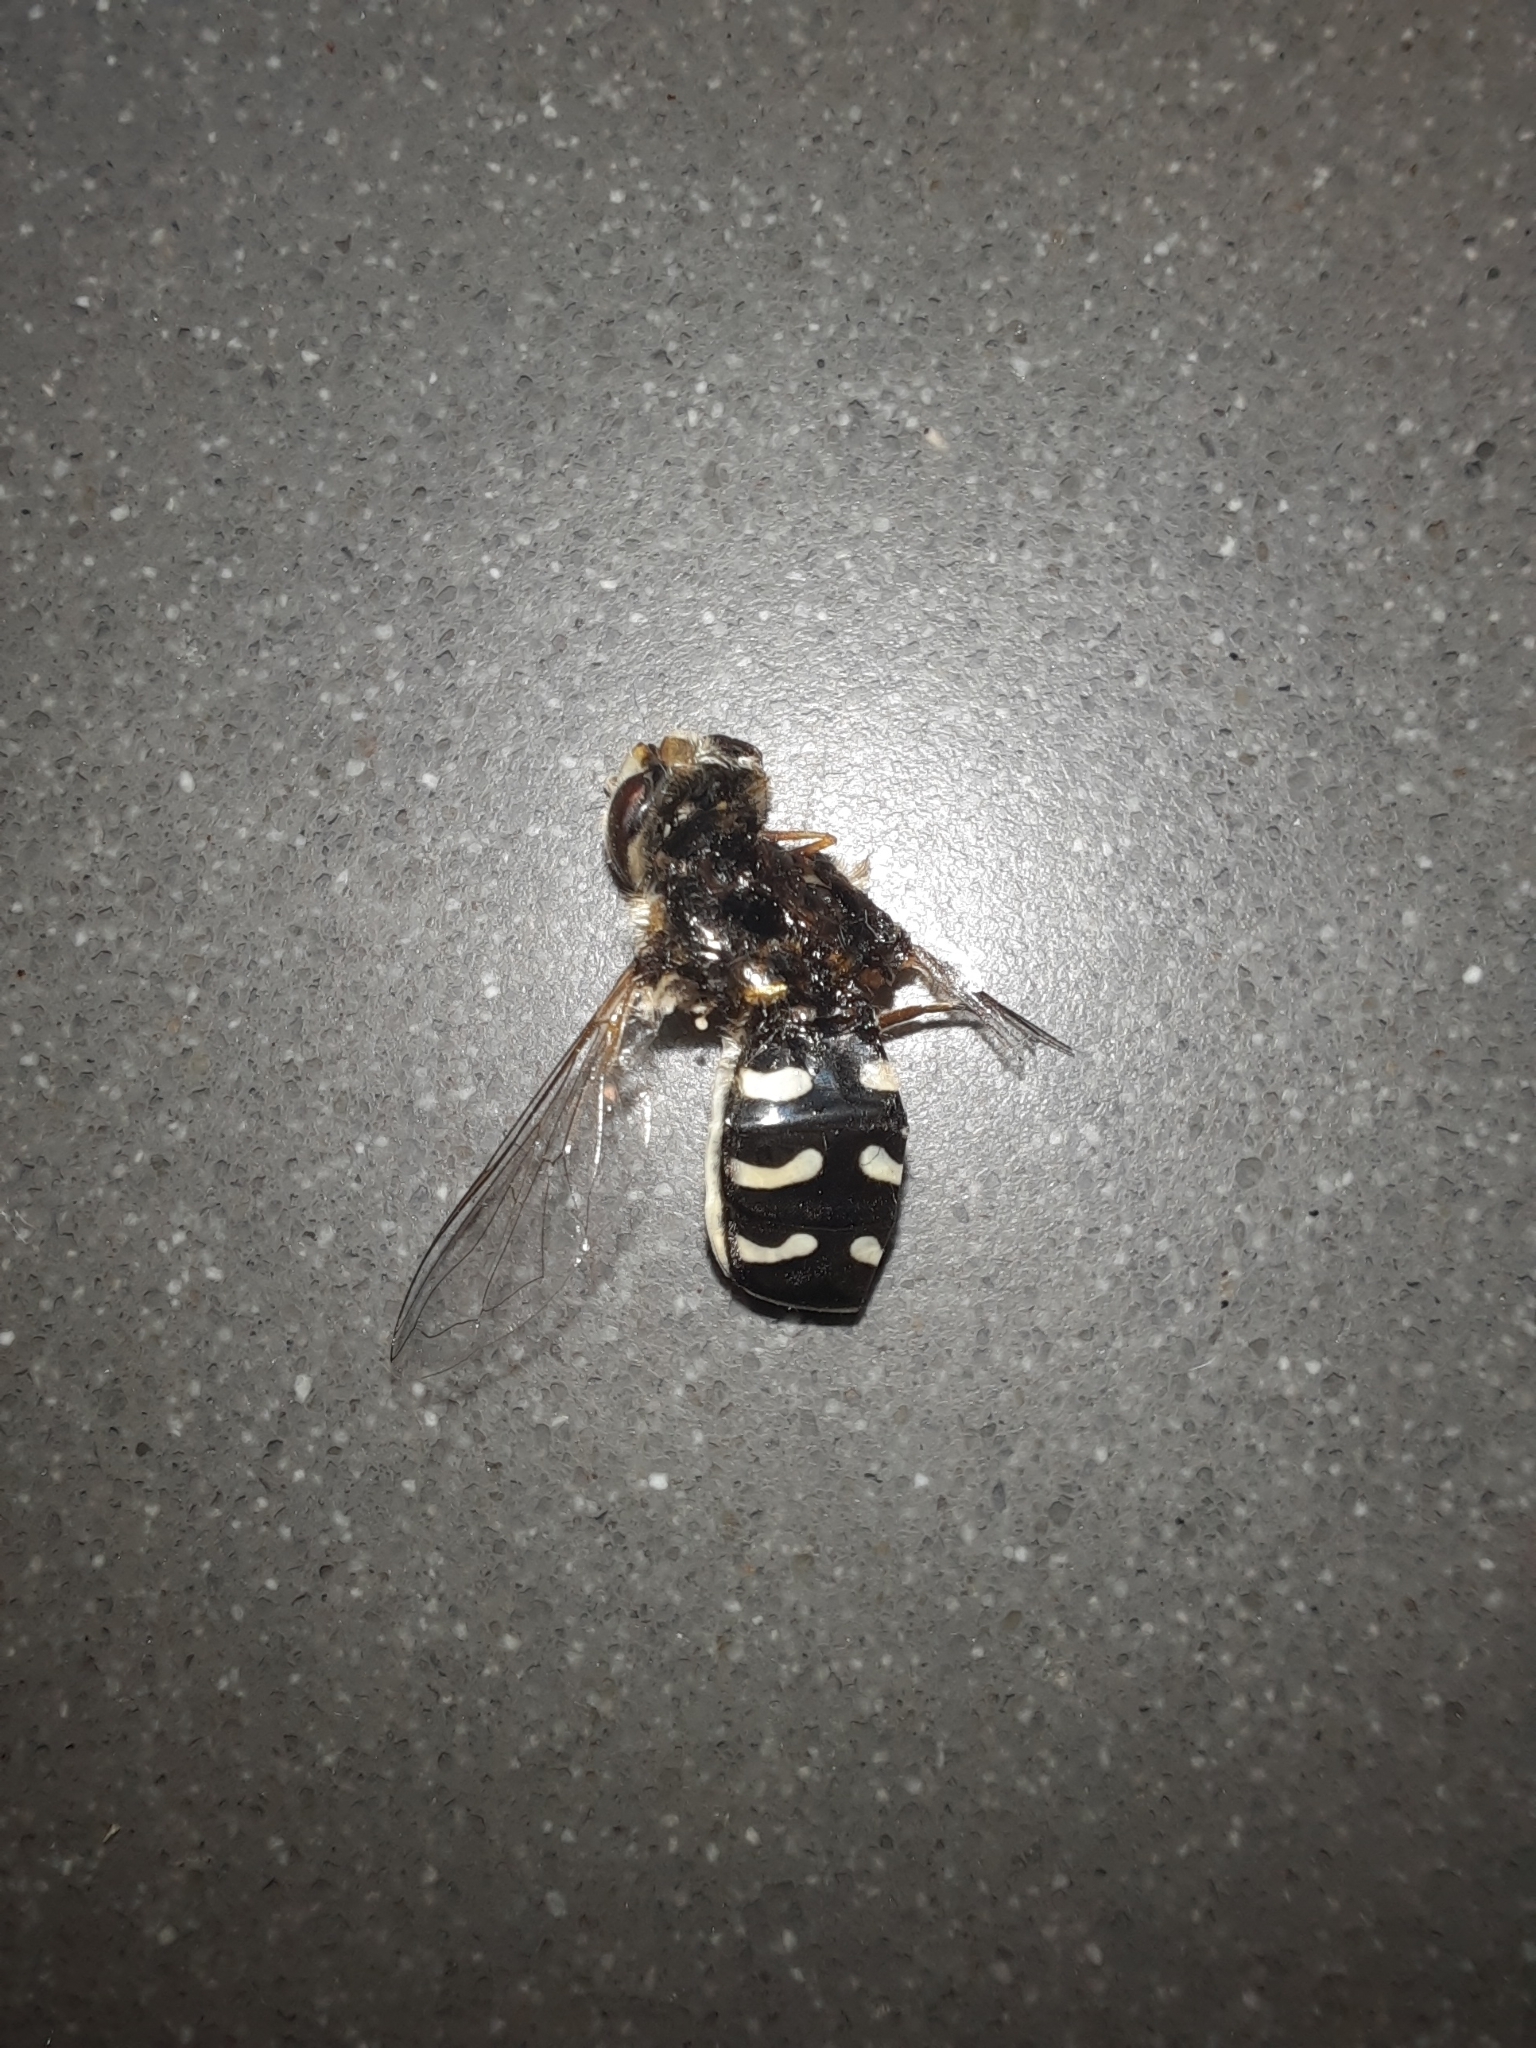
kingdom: Animalia
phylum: Arthropoda
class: Insecta
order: Diptera
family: Syrphidae
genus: Scaeva
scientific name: Scaeva pyrastri
